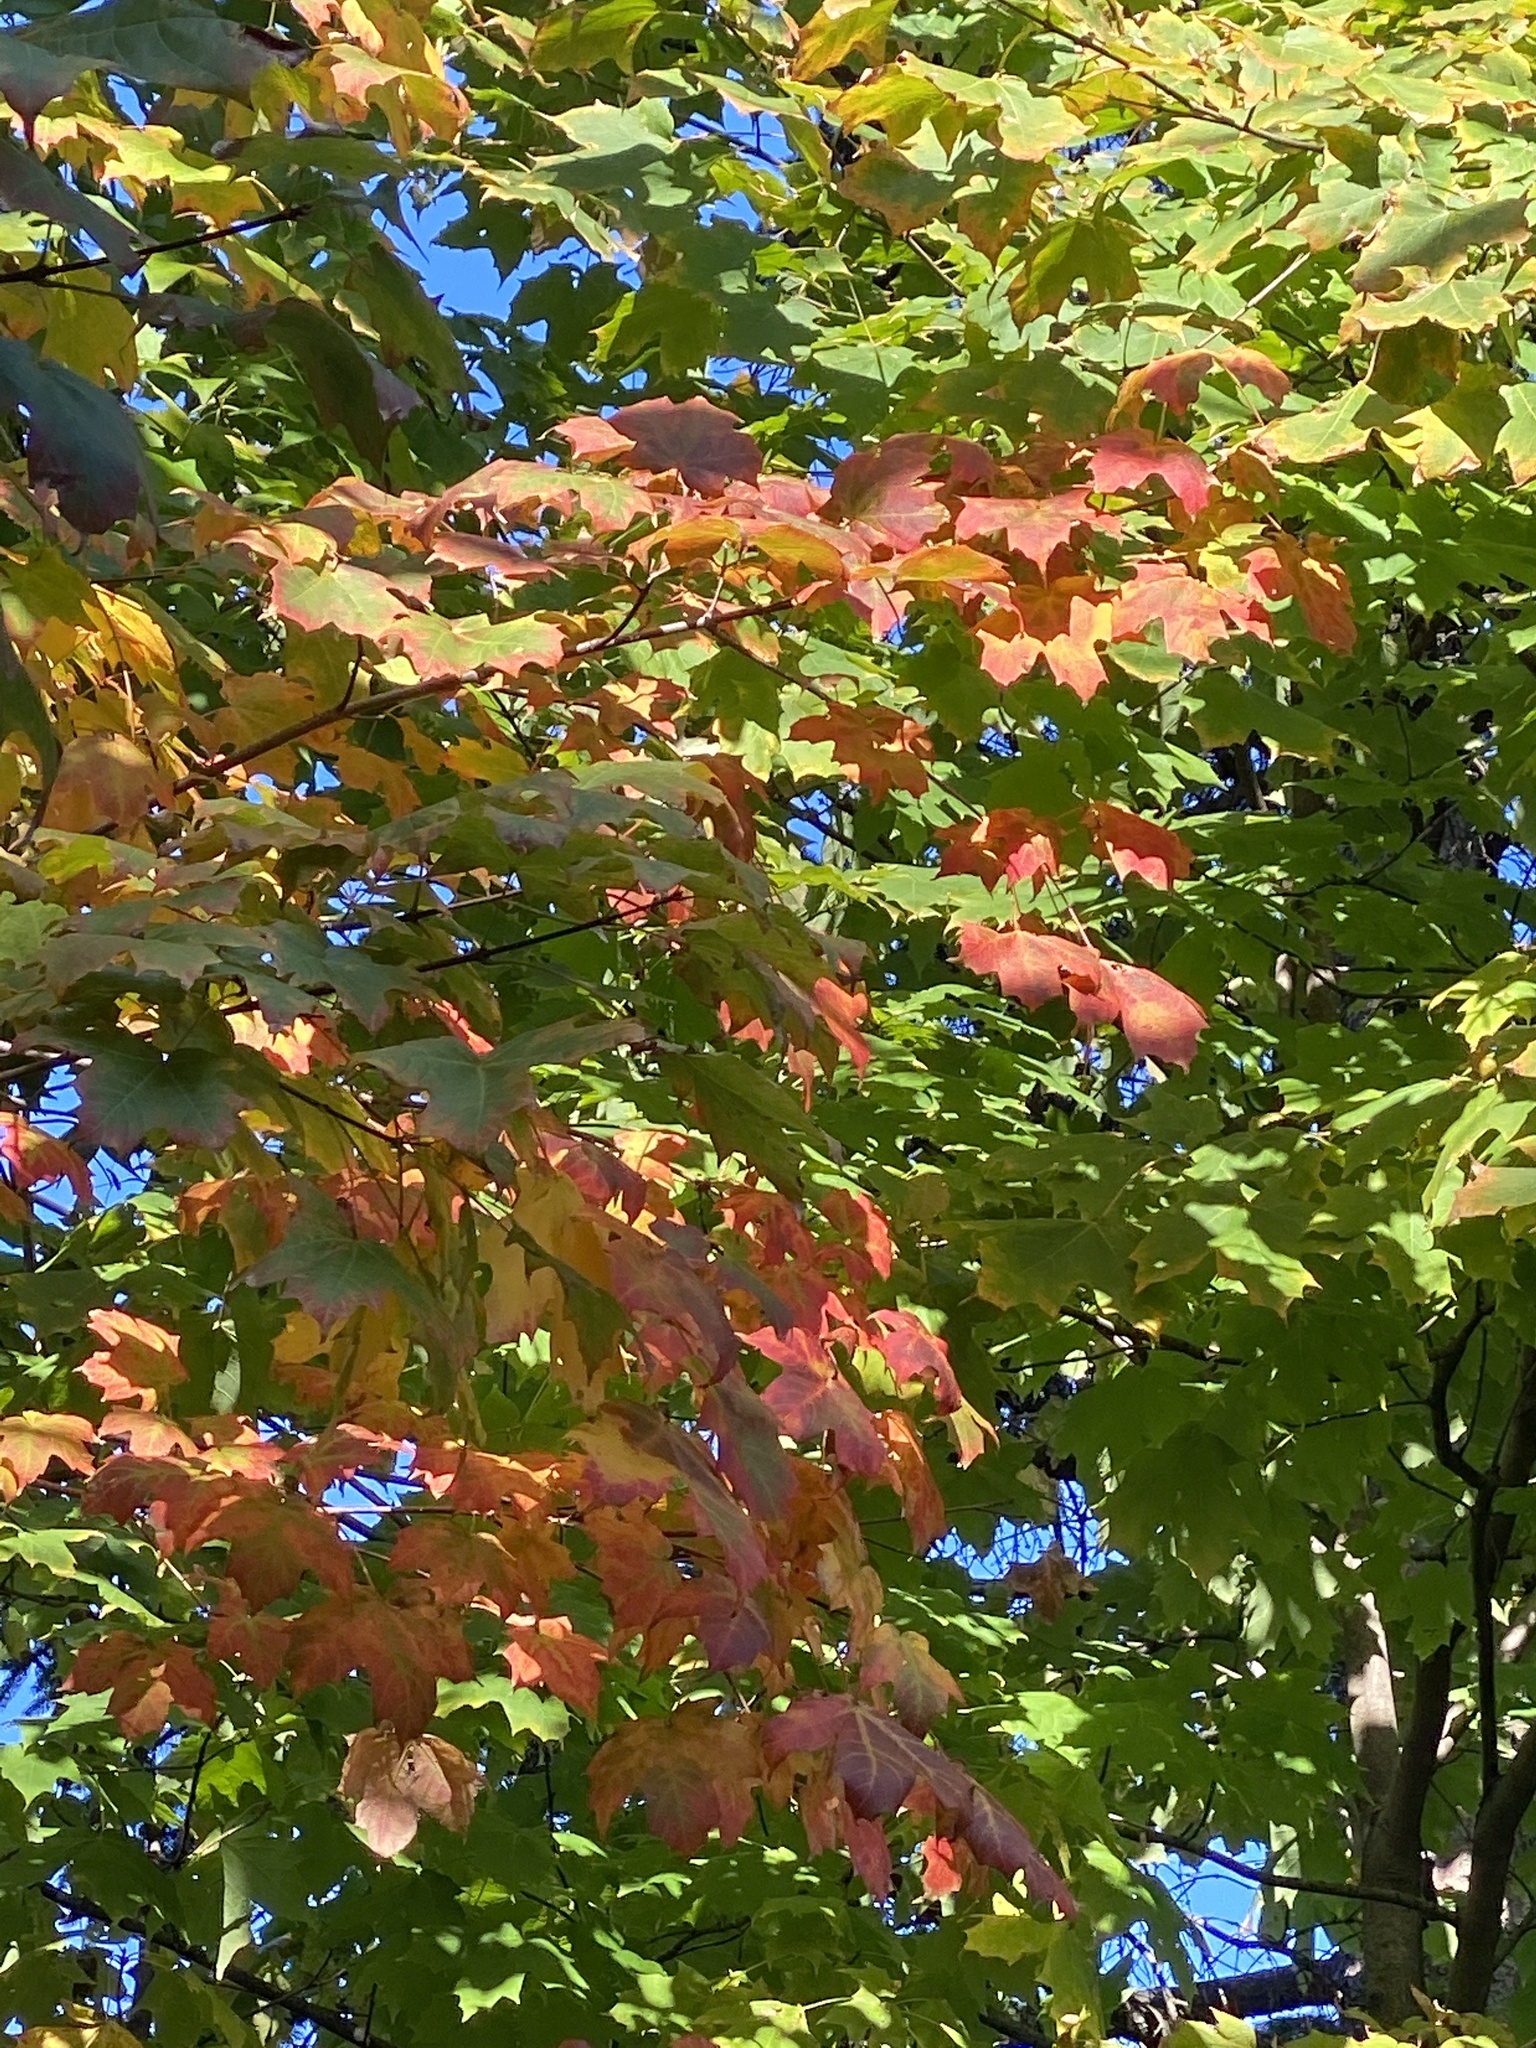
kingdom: Plantae
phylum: Tracheophyta
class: Magnoliopsida
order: Sapindales
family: Sapindaceae
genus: Acer
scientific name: Acer saccharum
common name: Sugar maple
